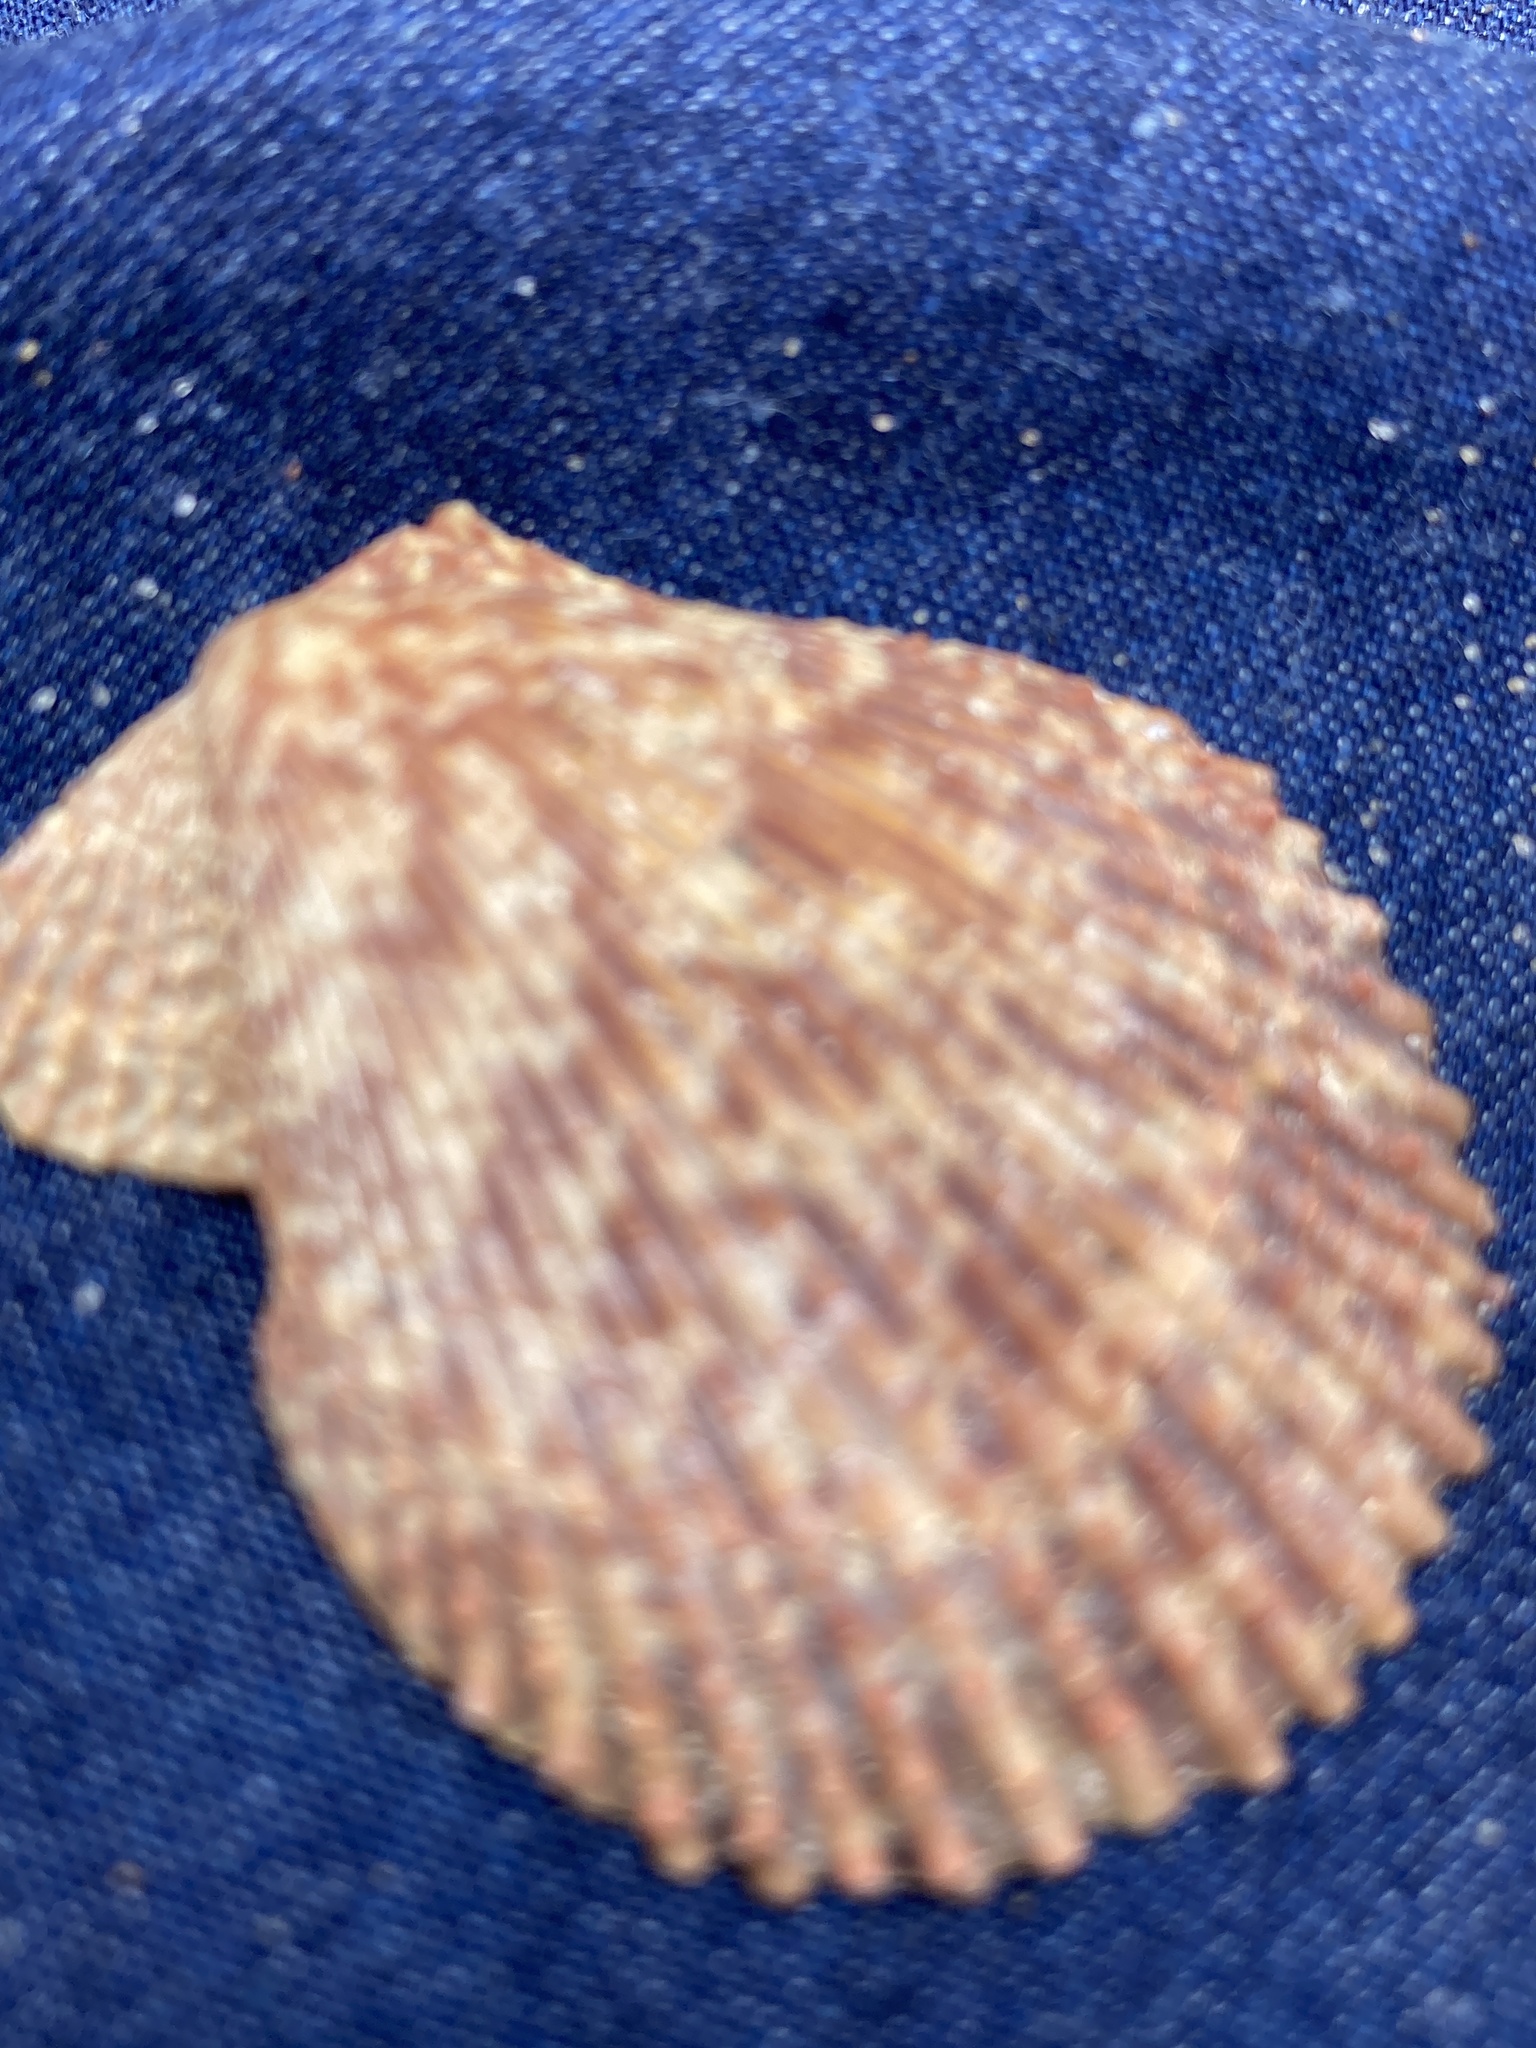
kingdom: Animalia
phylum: Mollusca
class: Bivalvia
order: Pectinida
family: Pectinidae
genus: Mimachlamys
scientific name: Mimachlamys varia
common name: Variegated scallop
